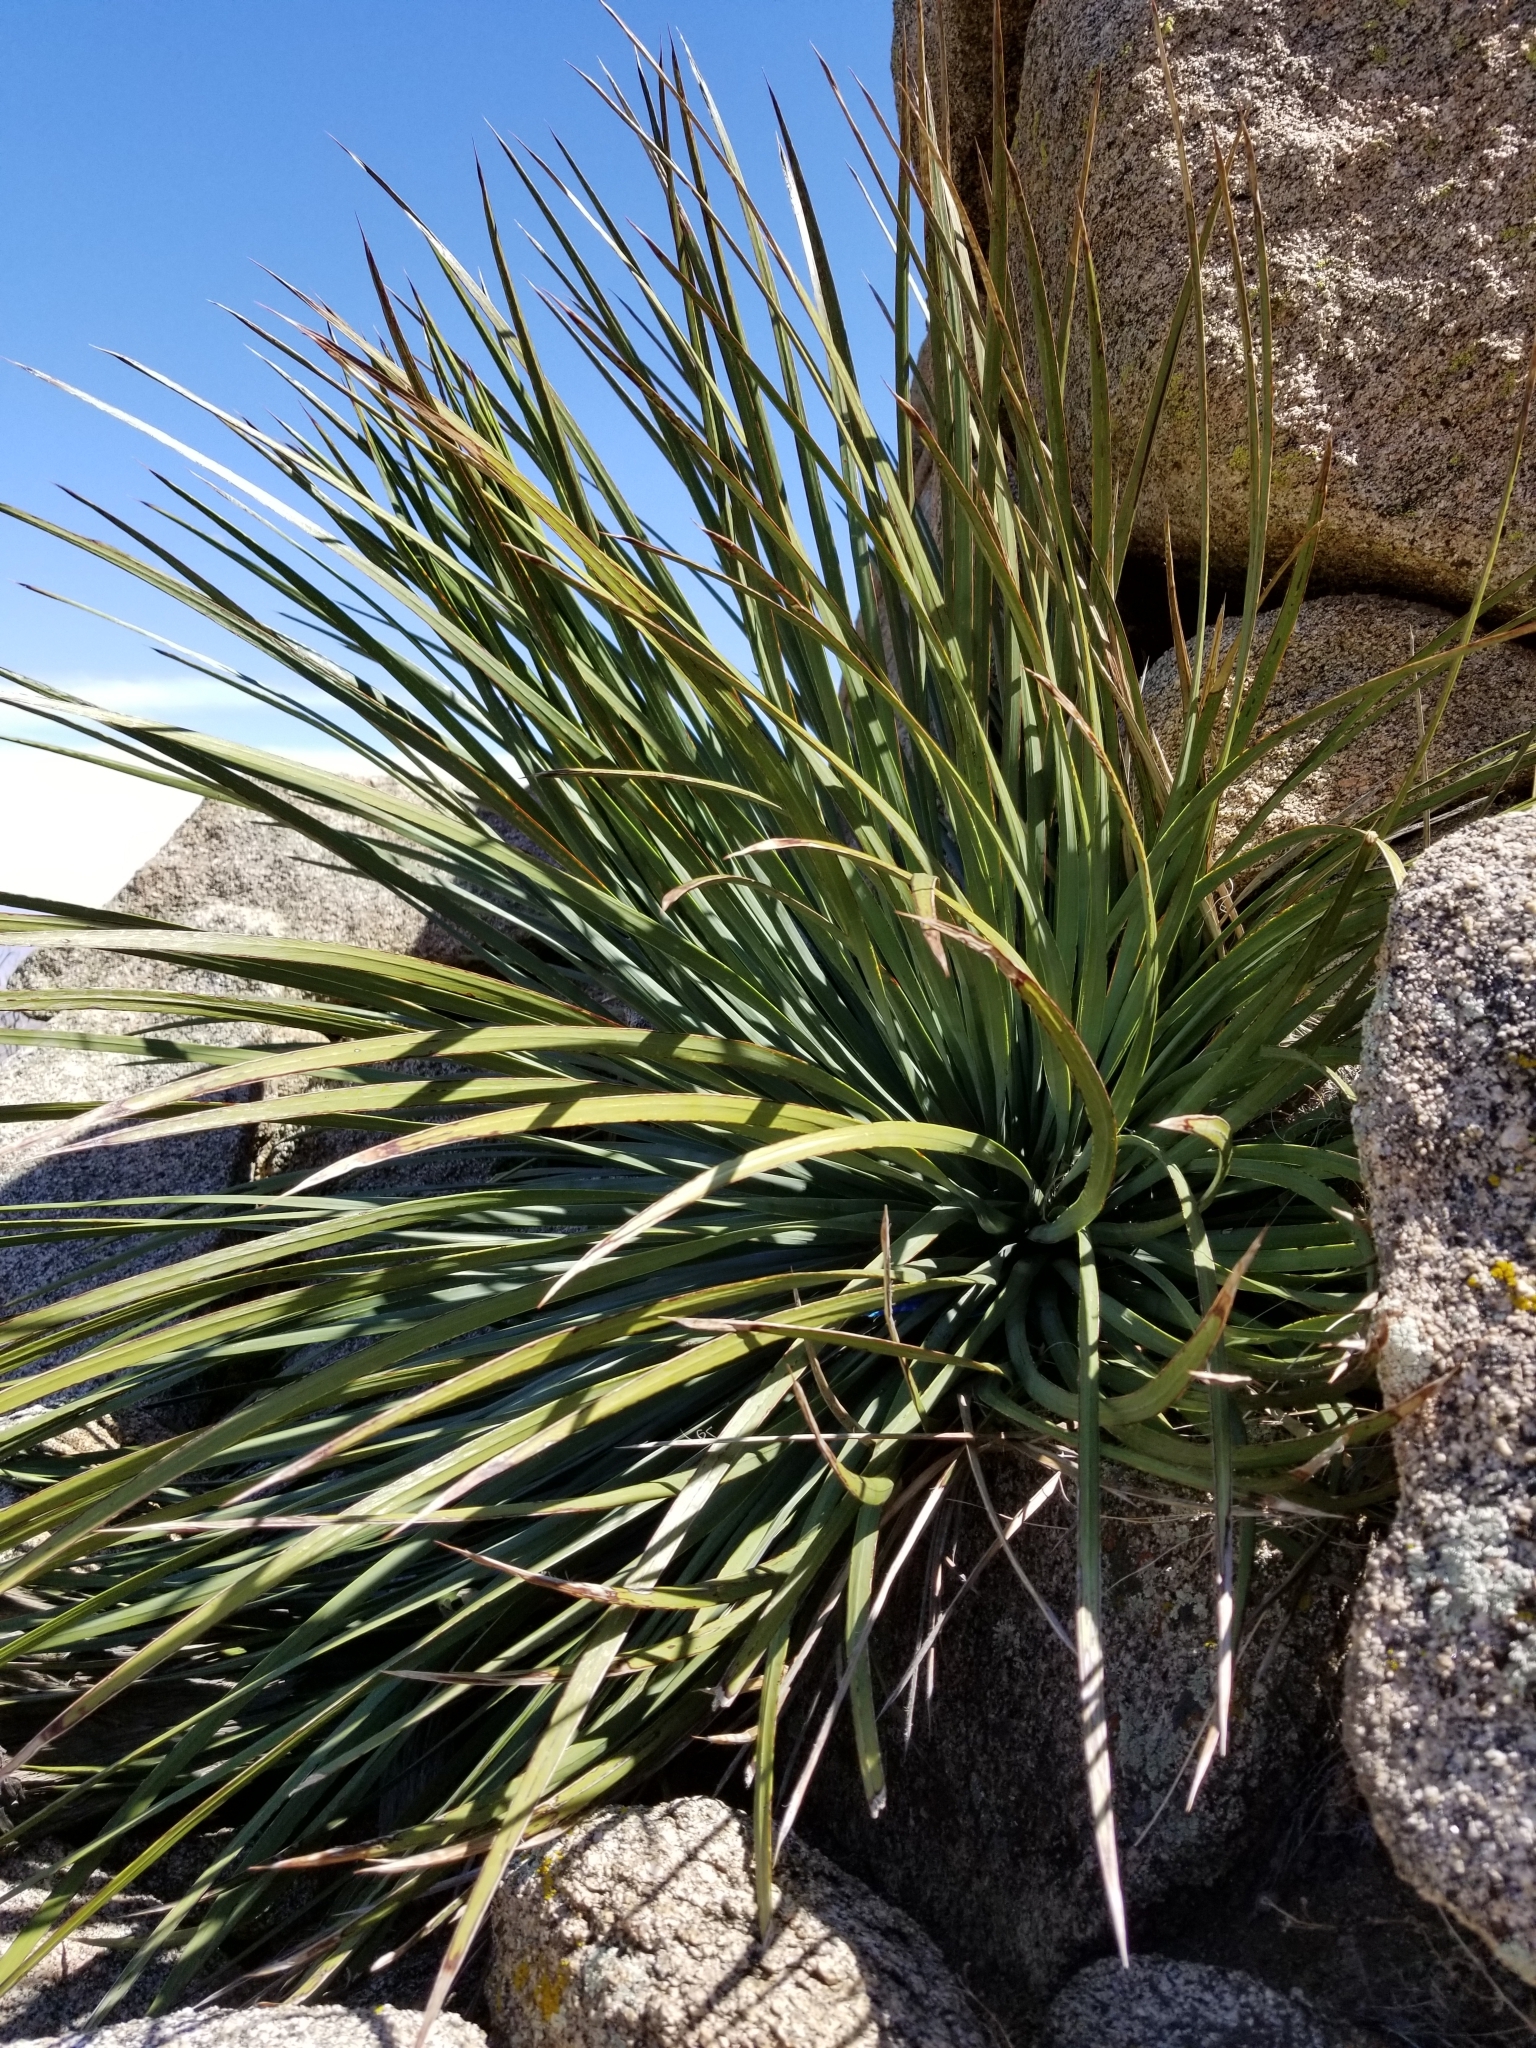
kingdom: Plantae
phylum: Tracheophyta
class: Liliopsida
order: Asparagales
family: Asparagaceae
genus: Hesperoyucca
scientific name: Hesperoyucca whipplei
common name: Our lord's-candle
